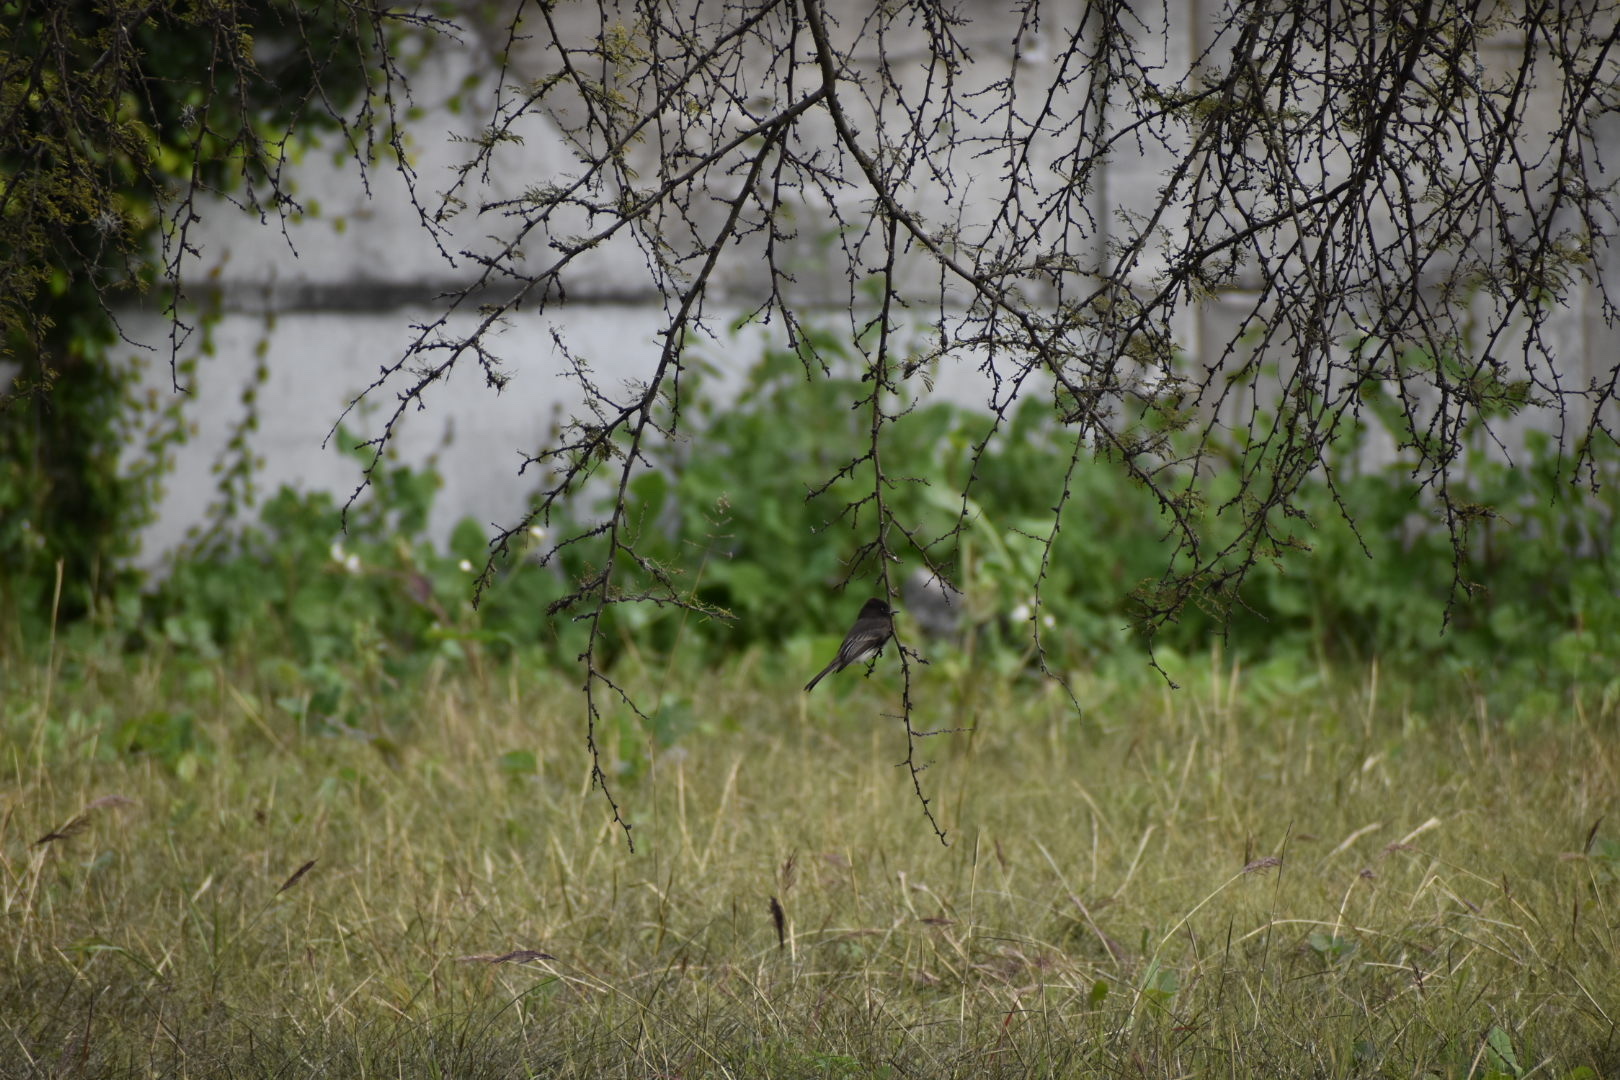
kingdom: Animalia
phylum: Chordata
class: Aves
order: Passeriformes
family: Tyrannidae
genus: Sayornis
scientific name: Sayornis nigricans
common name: Black phoebe
